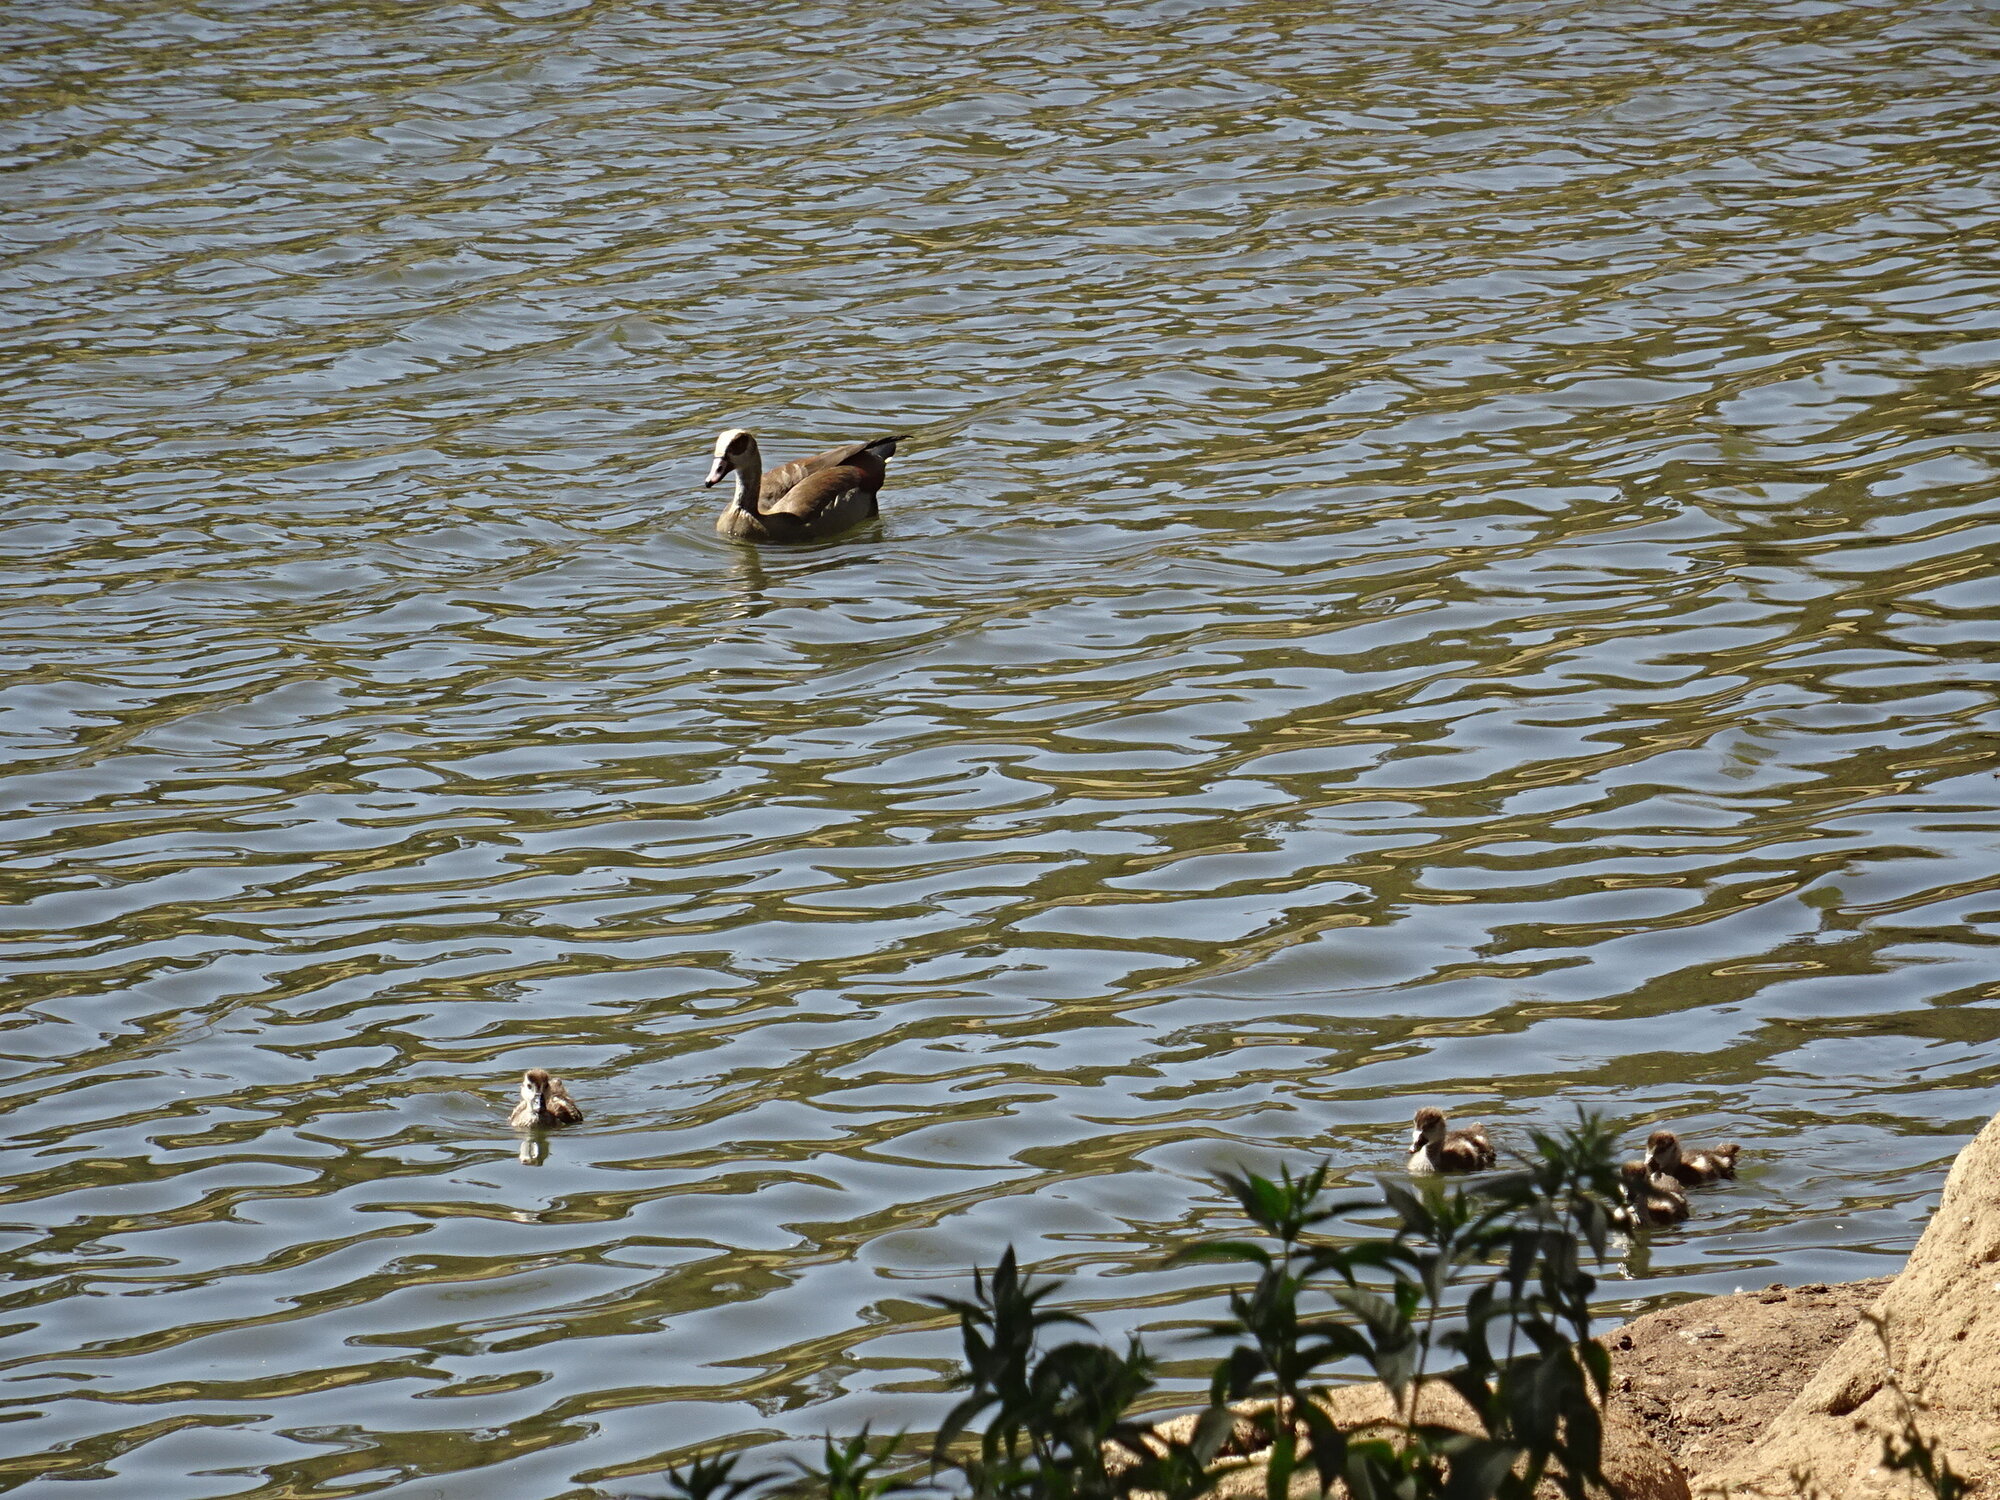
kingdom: Animalia
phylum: Chordata
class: Aves
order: Anseriformes
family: Anatidae
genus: Alopochen
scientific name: Alopochen aegyptiaca
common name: Egyptian goose
